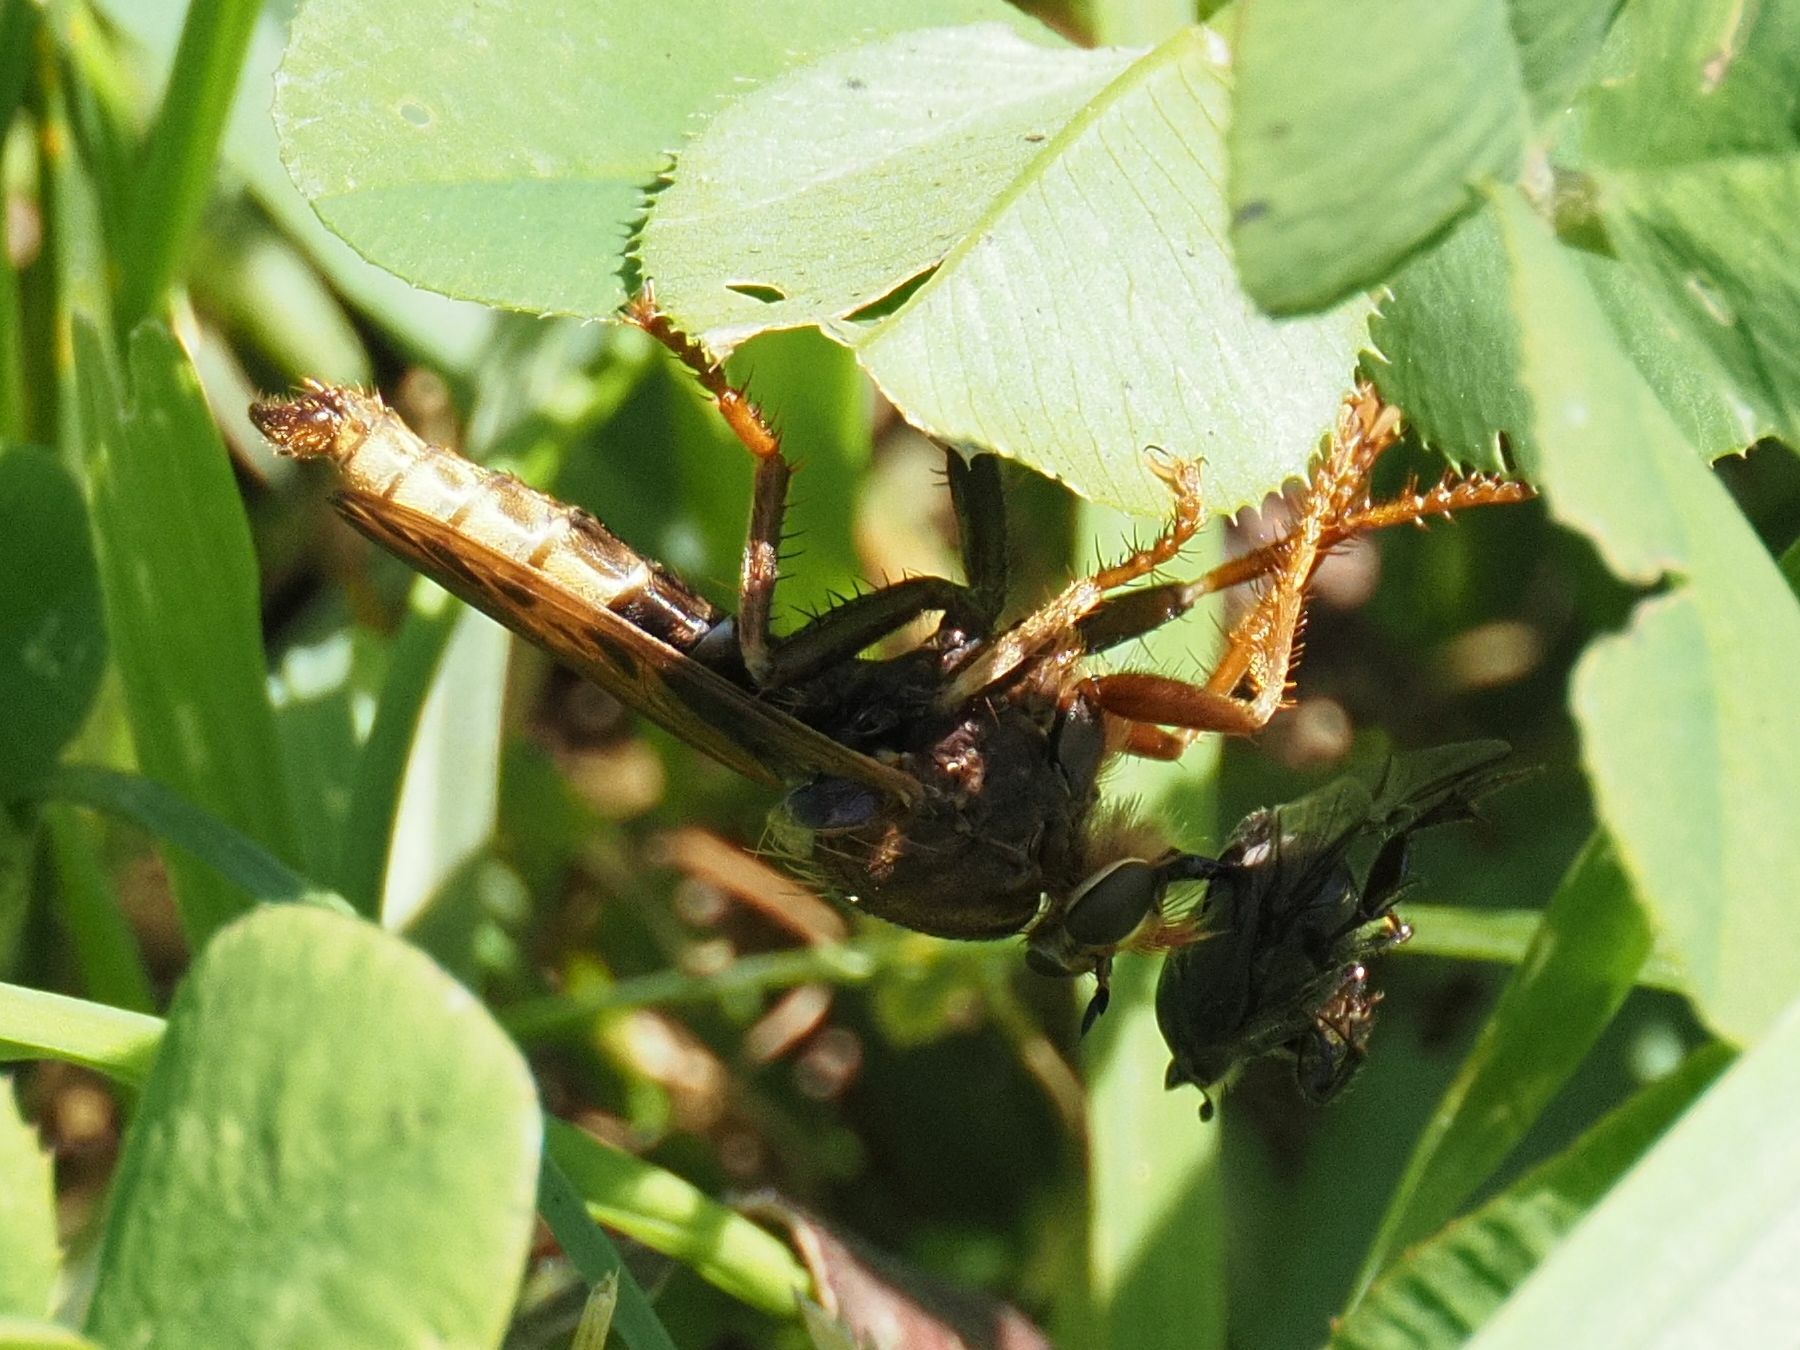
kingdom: Animalia
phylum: Arthropoda
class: Insecta
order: Diptera
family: Asilidae
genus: Asilus
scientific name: Asilus crabroniformis
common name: Hornet robberfly
